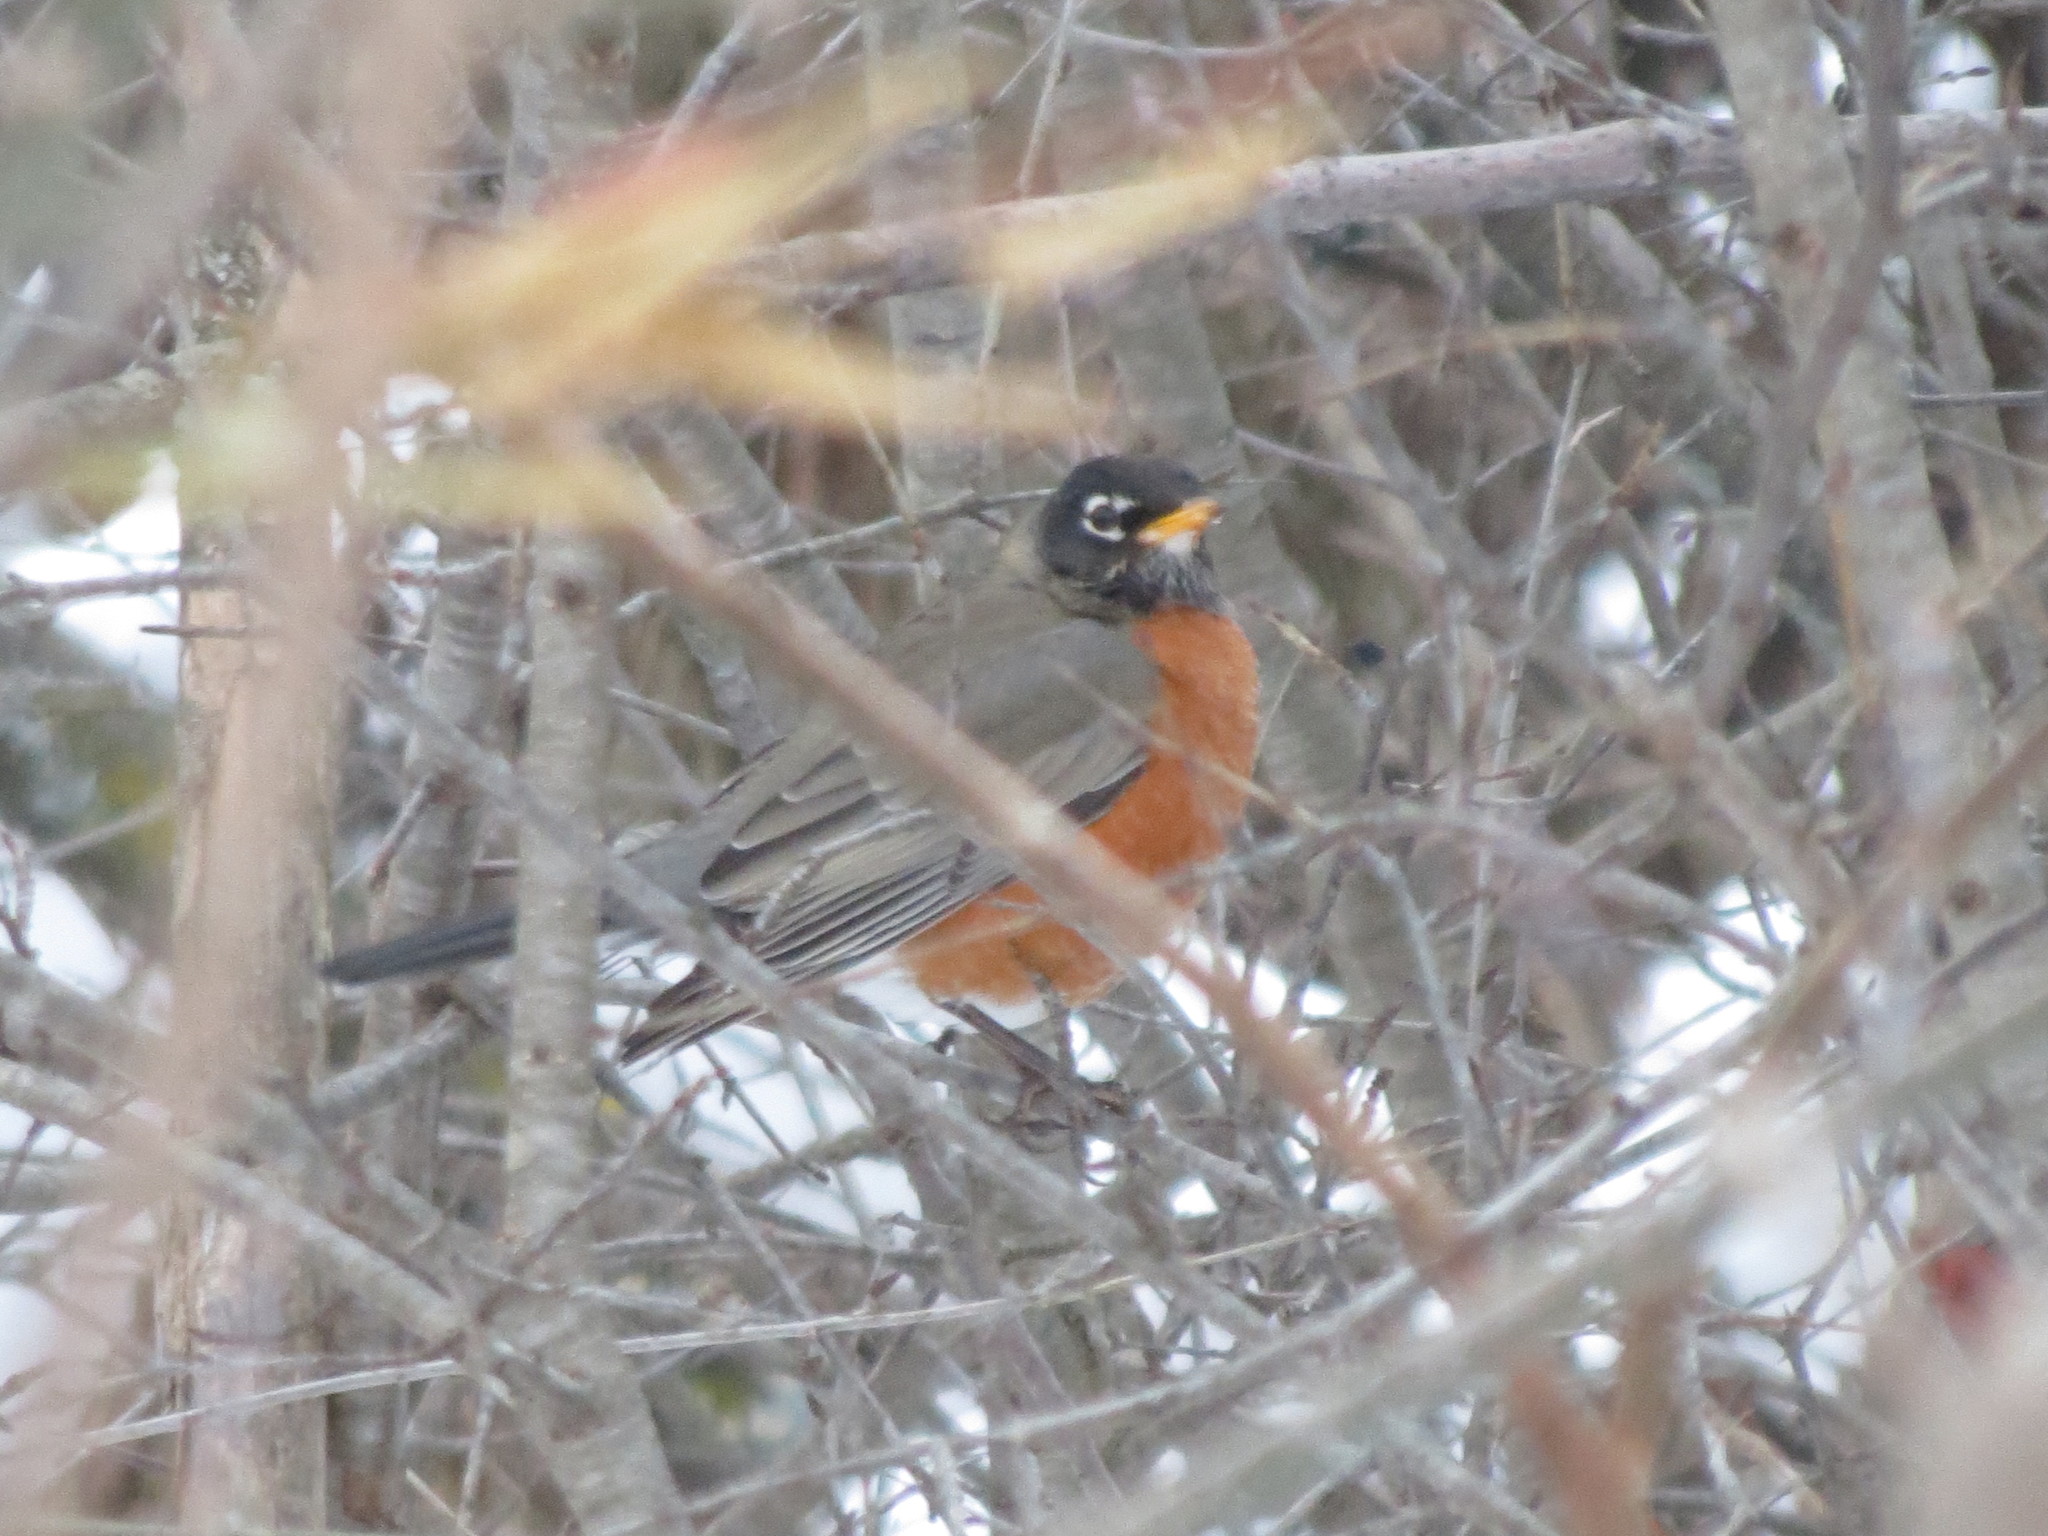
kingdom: Animalia
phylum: Chordata
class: Aves
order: Passeriformes
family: Turdidae
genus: Turdus
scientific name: Turdus migratorius
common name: American robin
